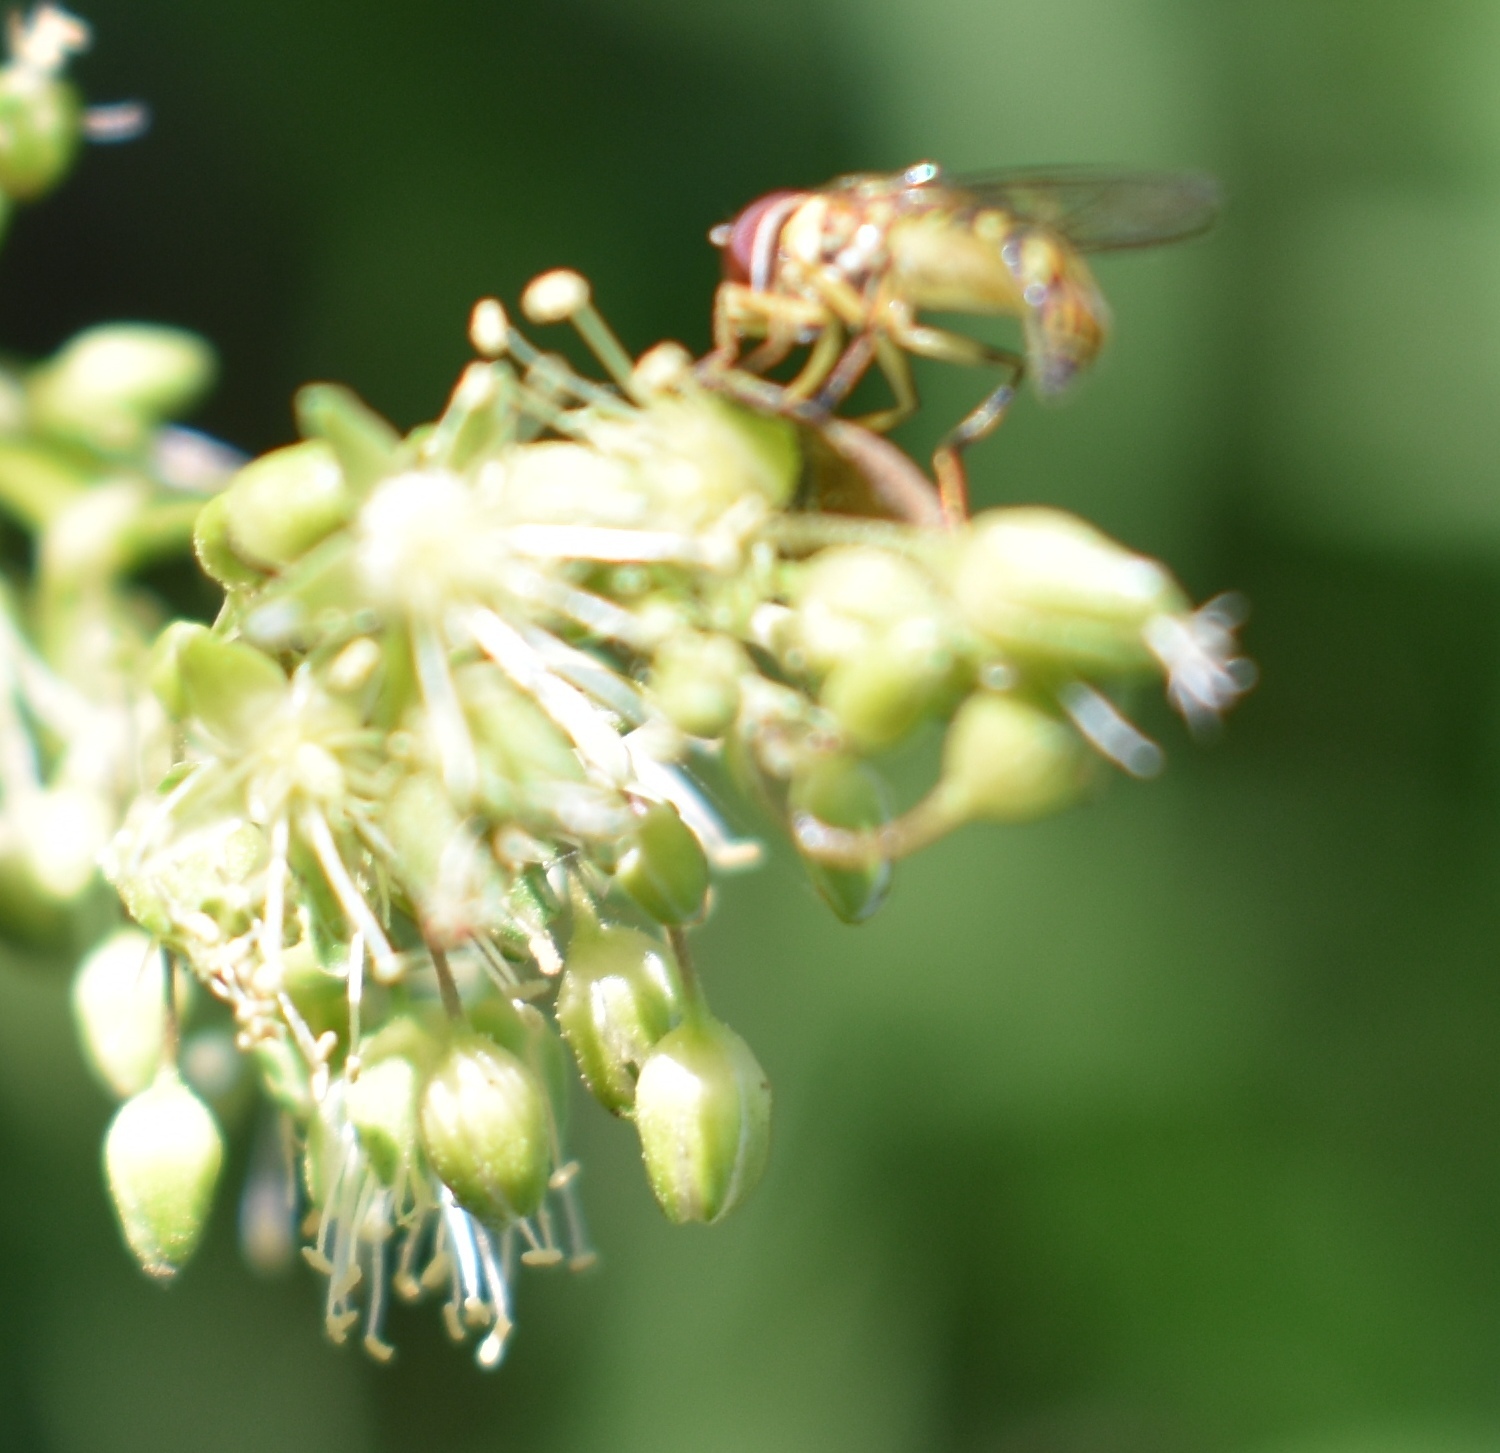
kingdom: Animalia
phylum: Arthropoda
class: Insecta
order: Diptera
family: Syrphidae
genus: Allograpta
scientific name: Allograpta obliqua
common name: Common oblique syrphid
